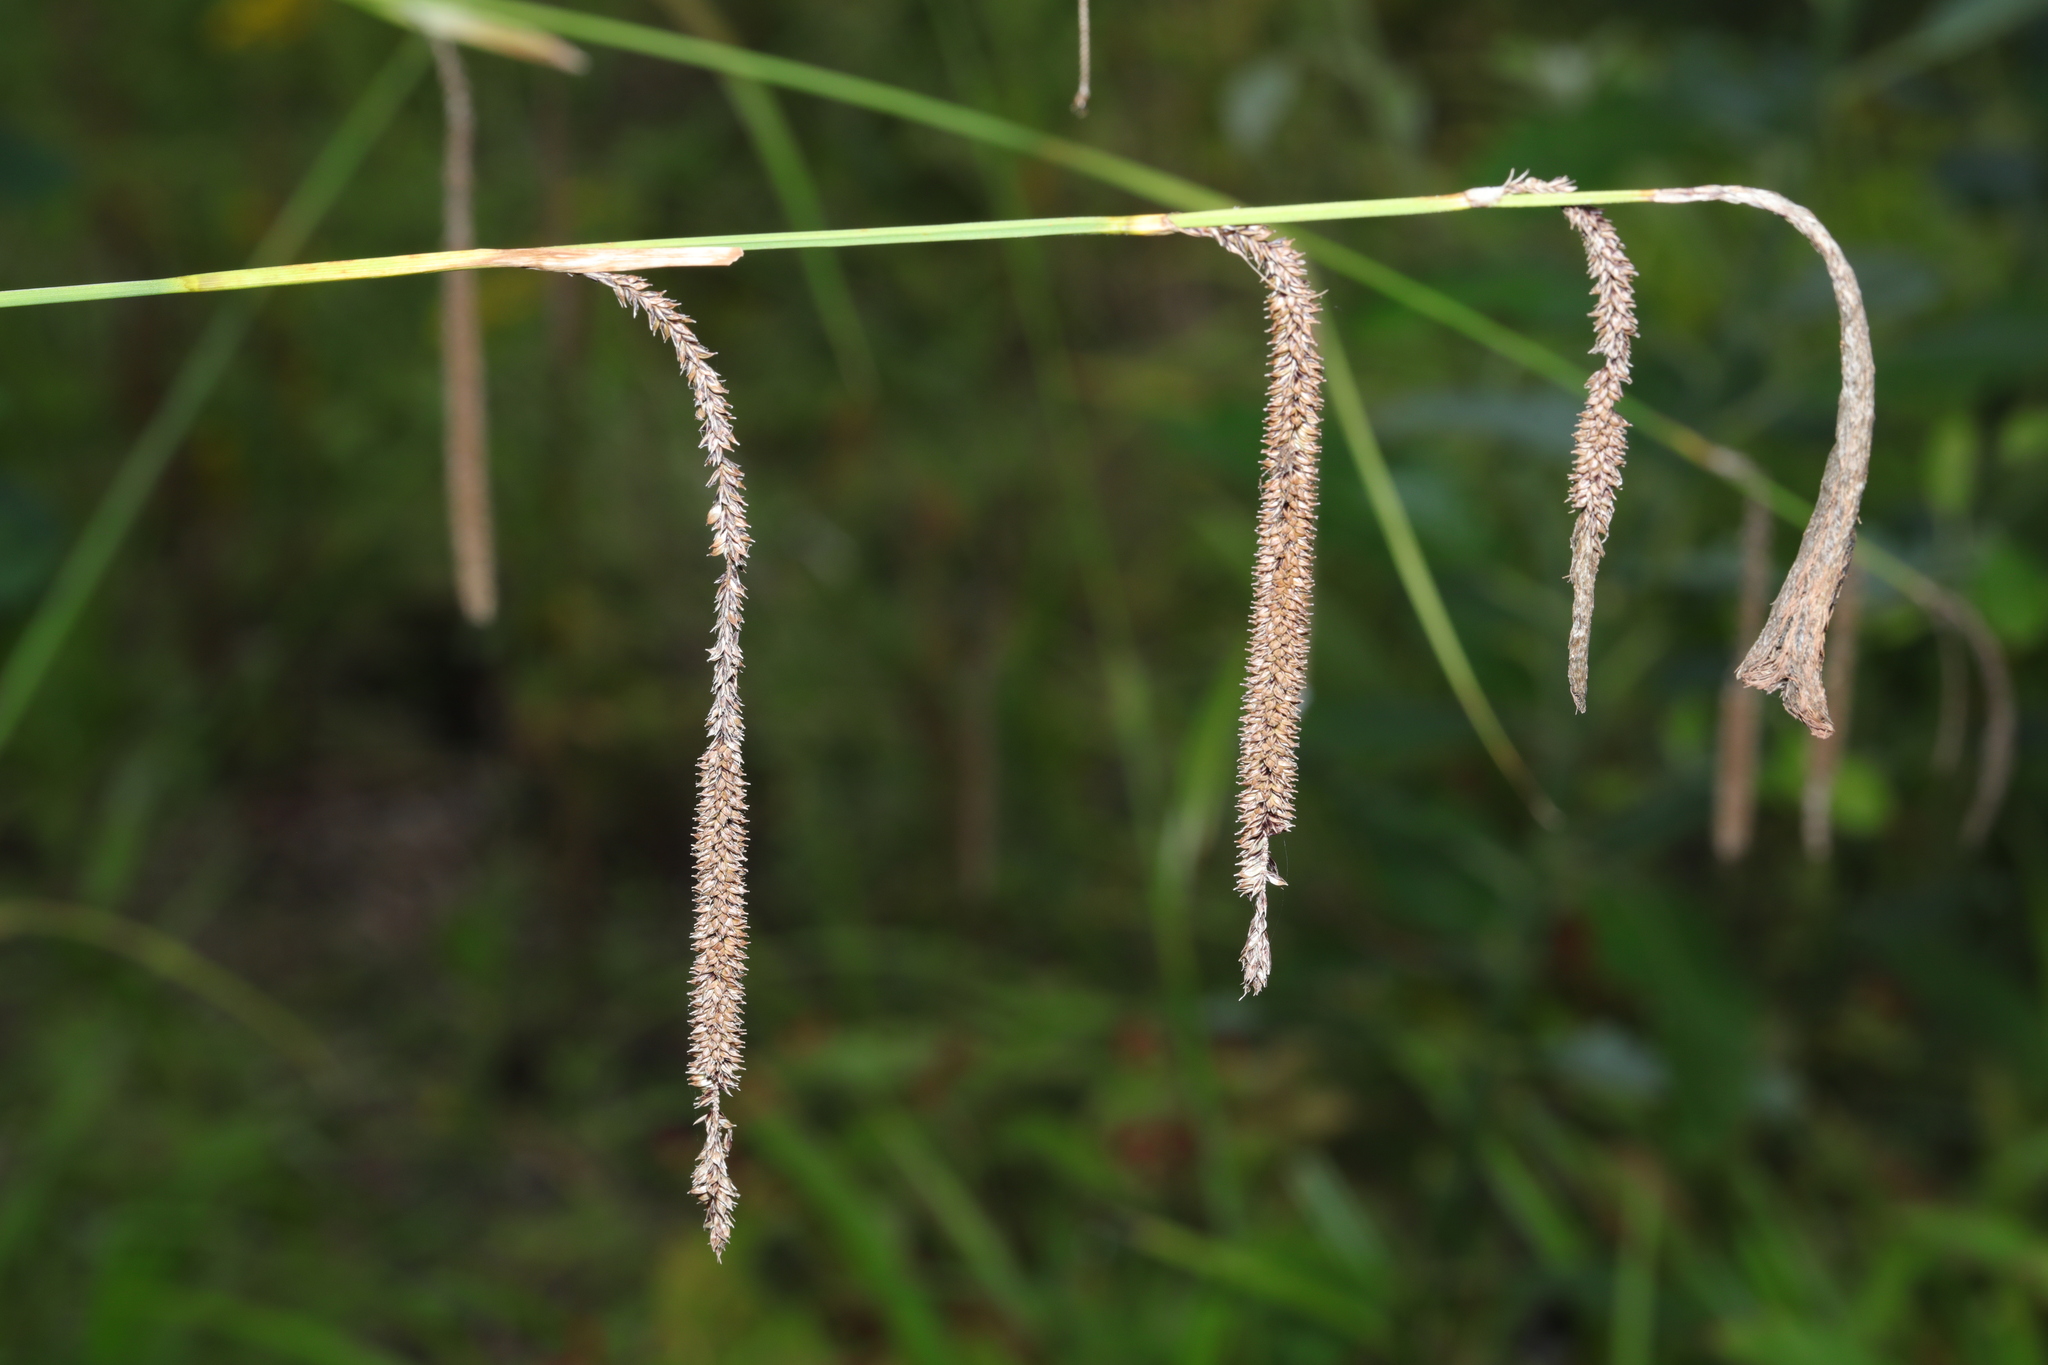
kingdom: Plantae
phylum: Tracheophyta
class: Liliopsida
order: Poales
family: Cyperaceae
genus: Carex
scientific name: Carex pendula
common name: Pendulous sedge
